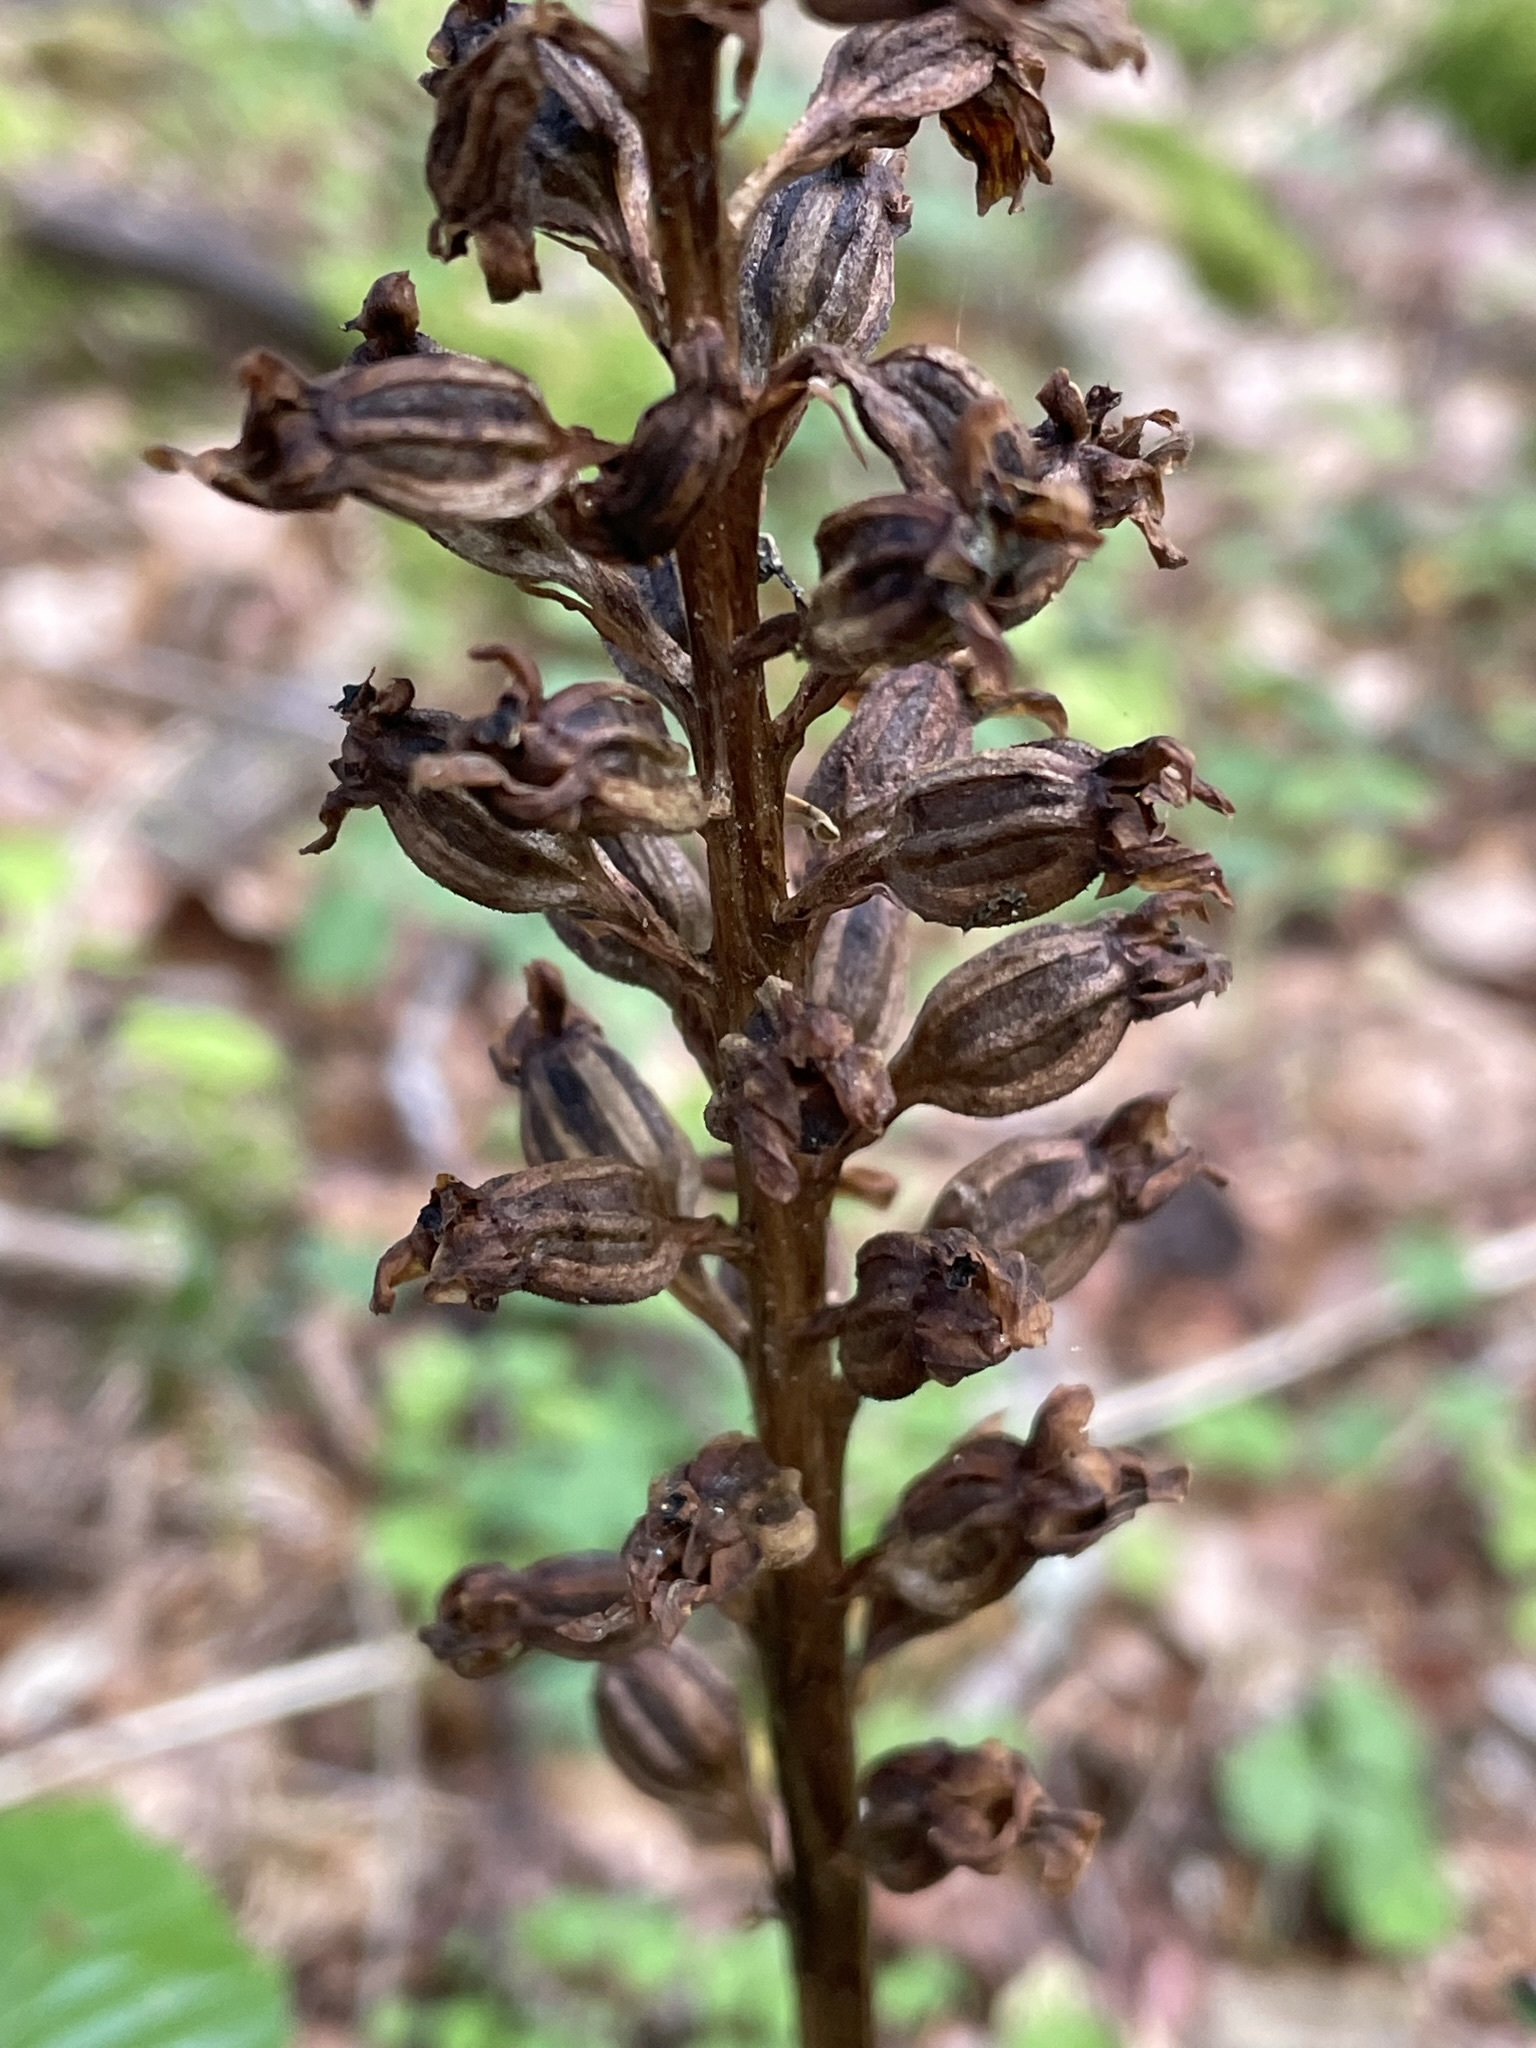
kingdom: Plantae
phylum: Tracheophyta
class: Liliopsida
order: Asparagales
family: Orchidaceae
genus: Neottia
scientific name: Neottia nidus-avis
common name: Bird's-nest orchid
